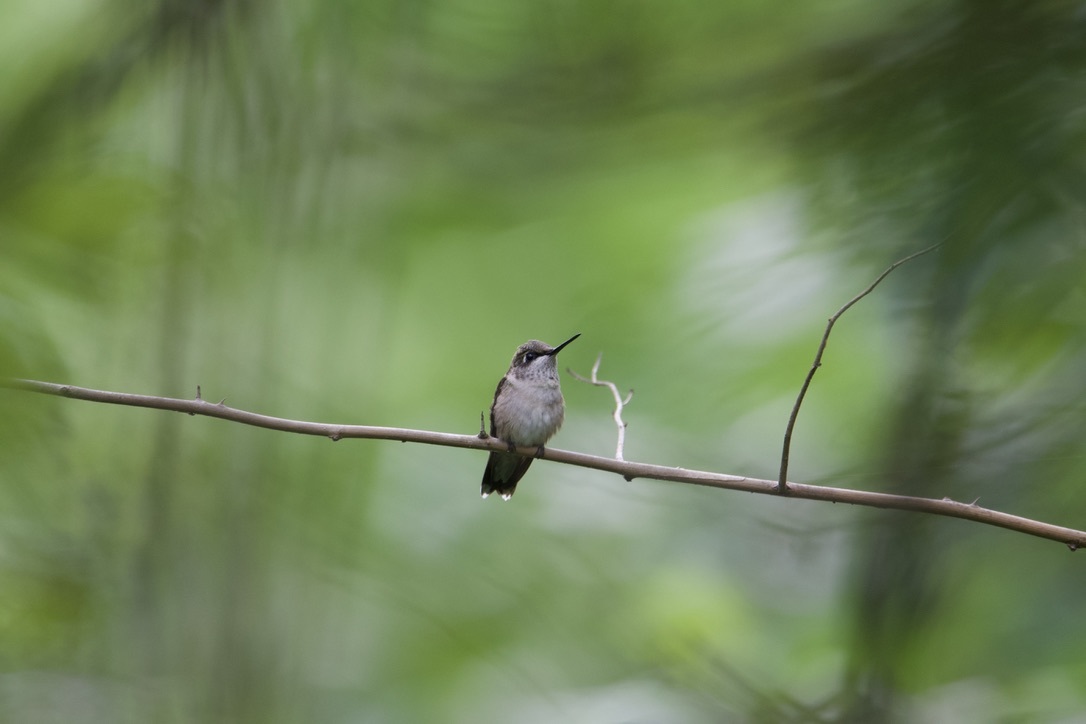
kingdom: Animalia
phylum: Chordata
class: Aves
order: Apodiformes
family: Trochilidae
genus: Archilochus
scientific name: Archilochus colubris
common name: Ruby-throated hummingbird
